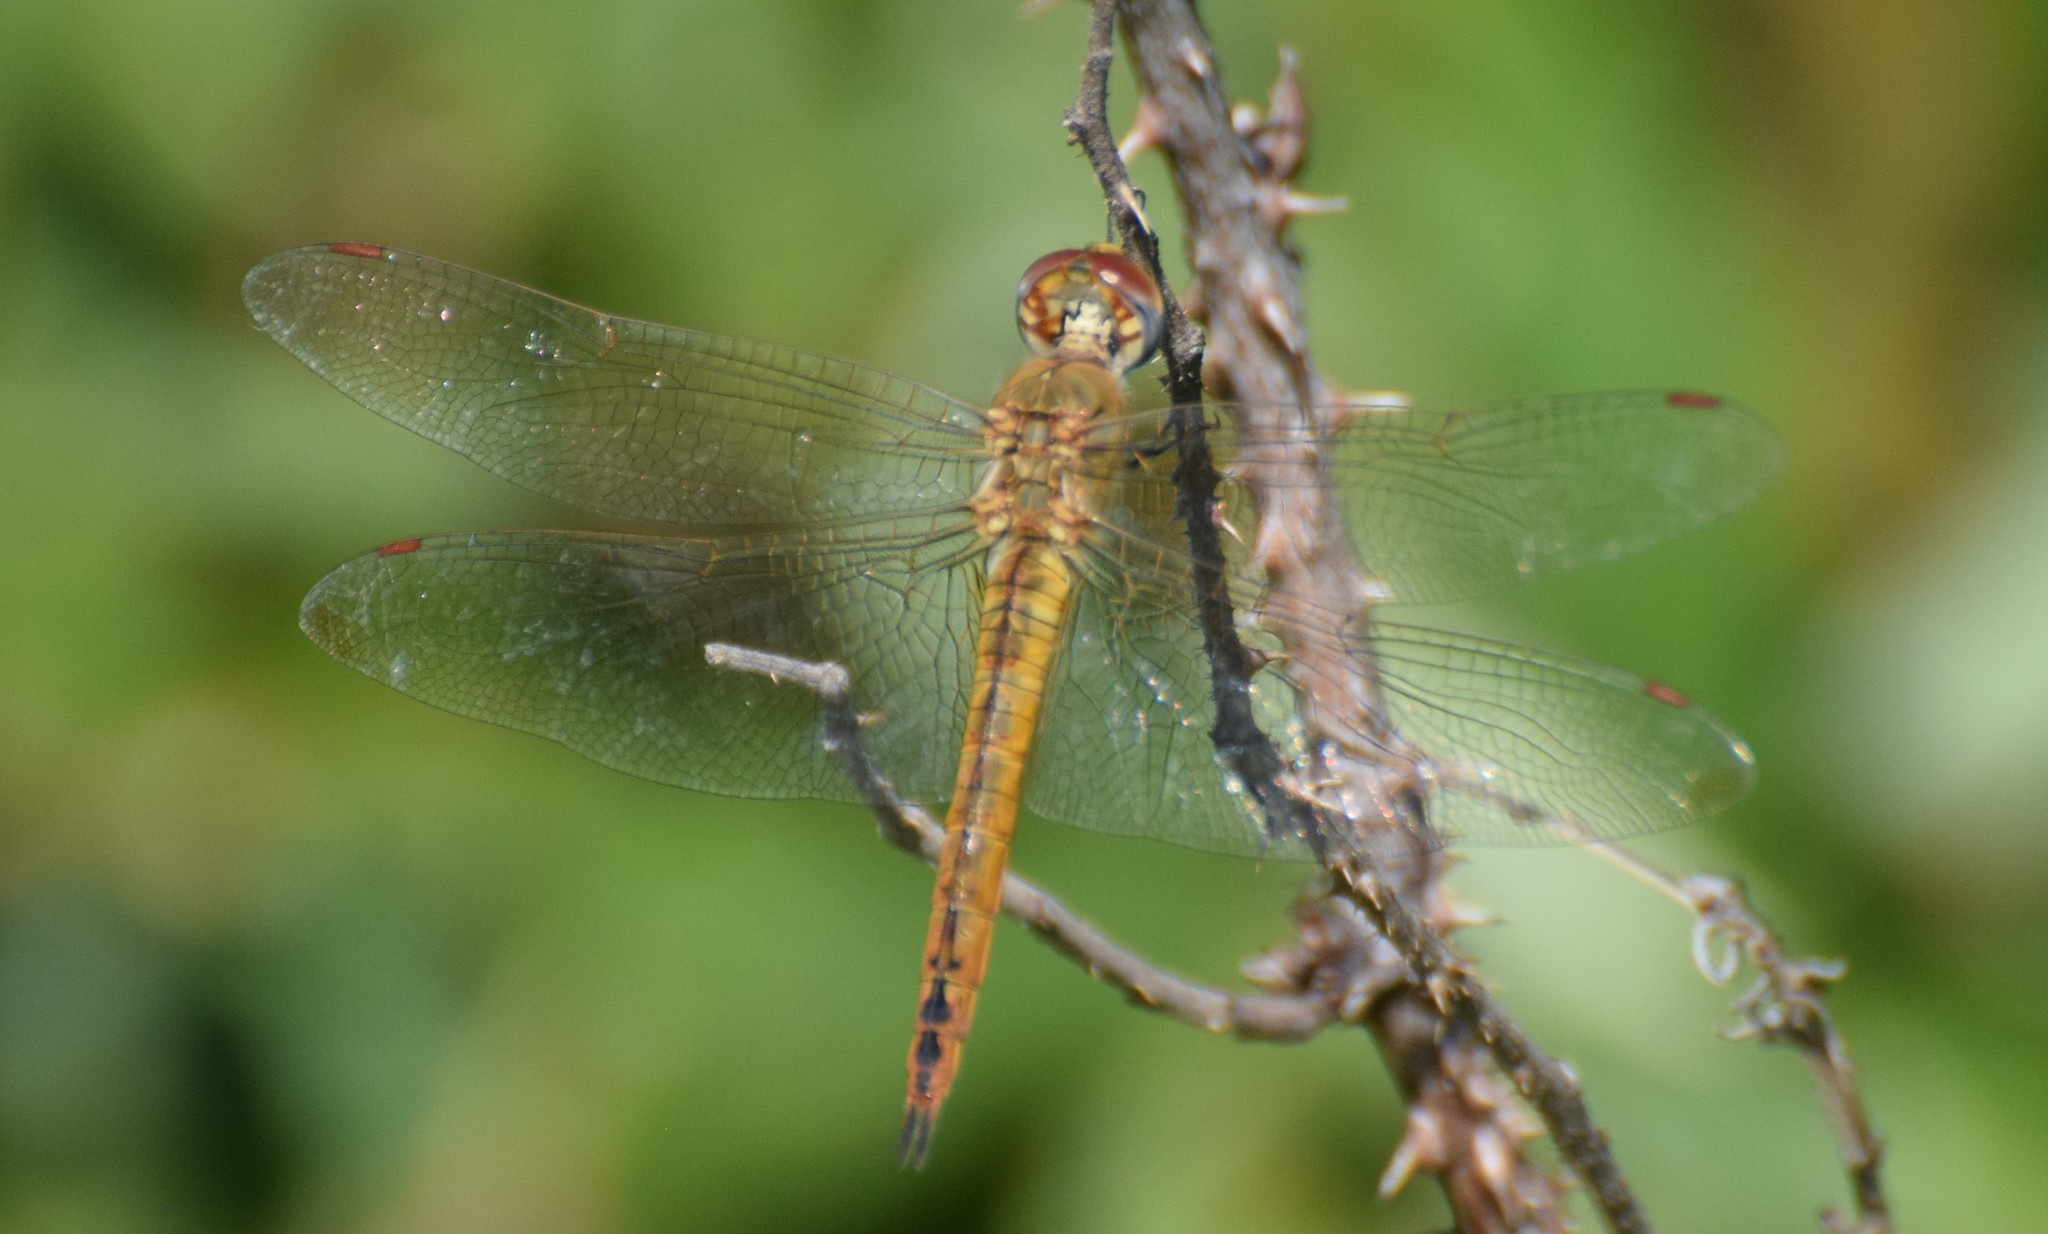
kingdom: Animalia
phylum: Arthropoda
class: Insecta
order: Odonata
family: Libellulidae
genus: Pantala
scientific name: Pantala flavescens
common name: Wandering glider
